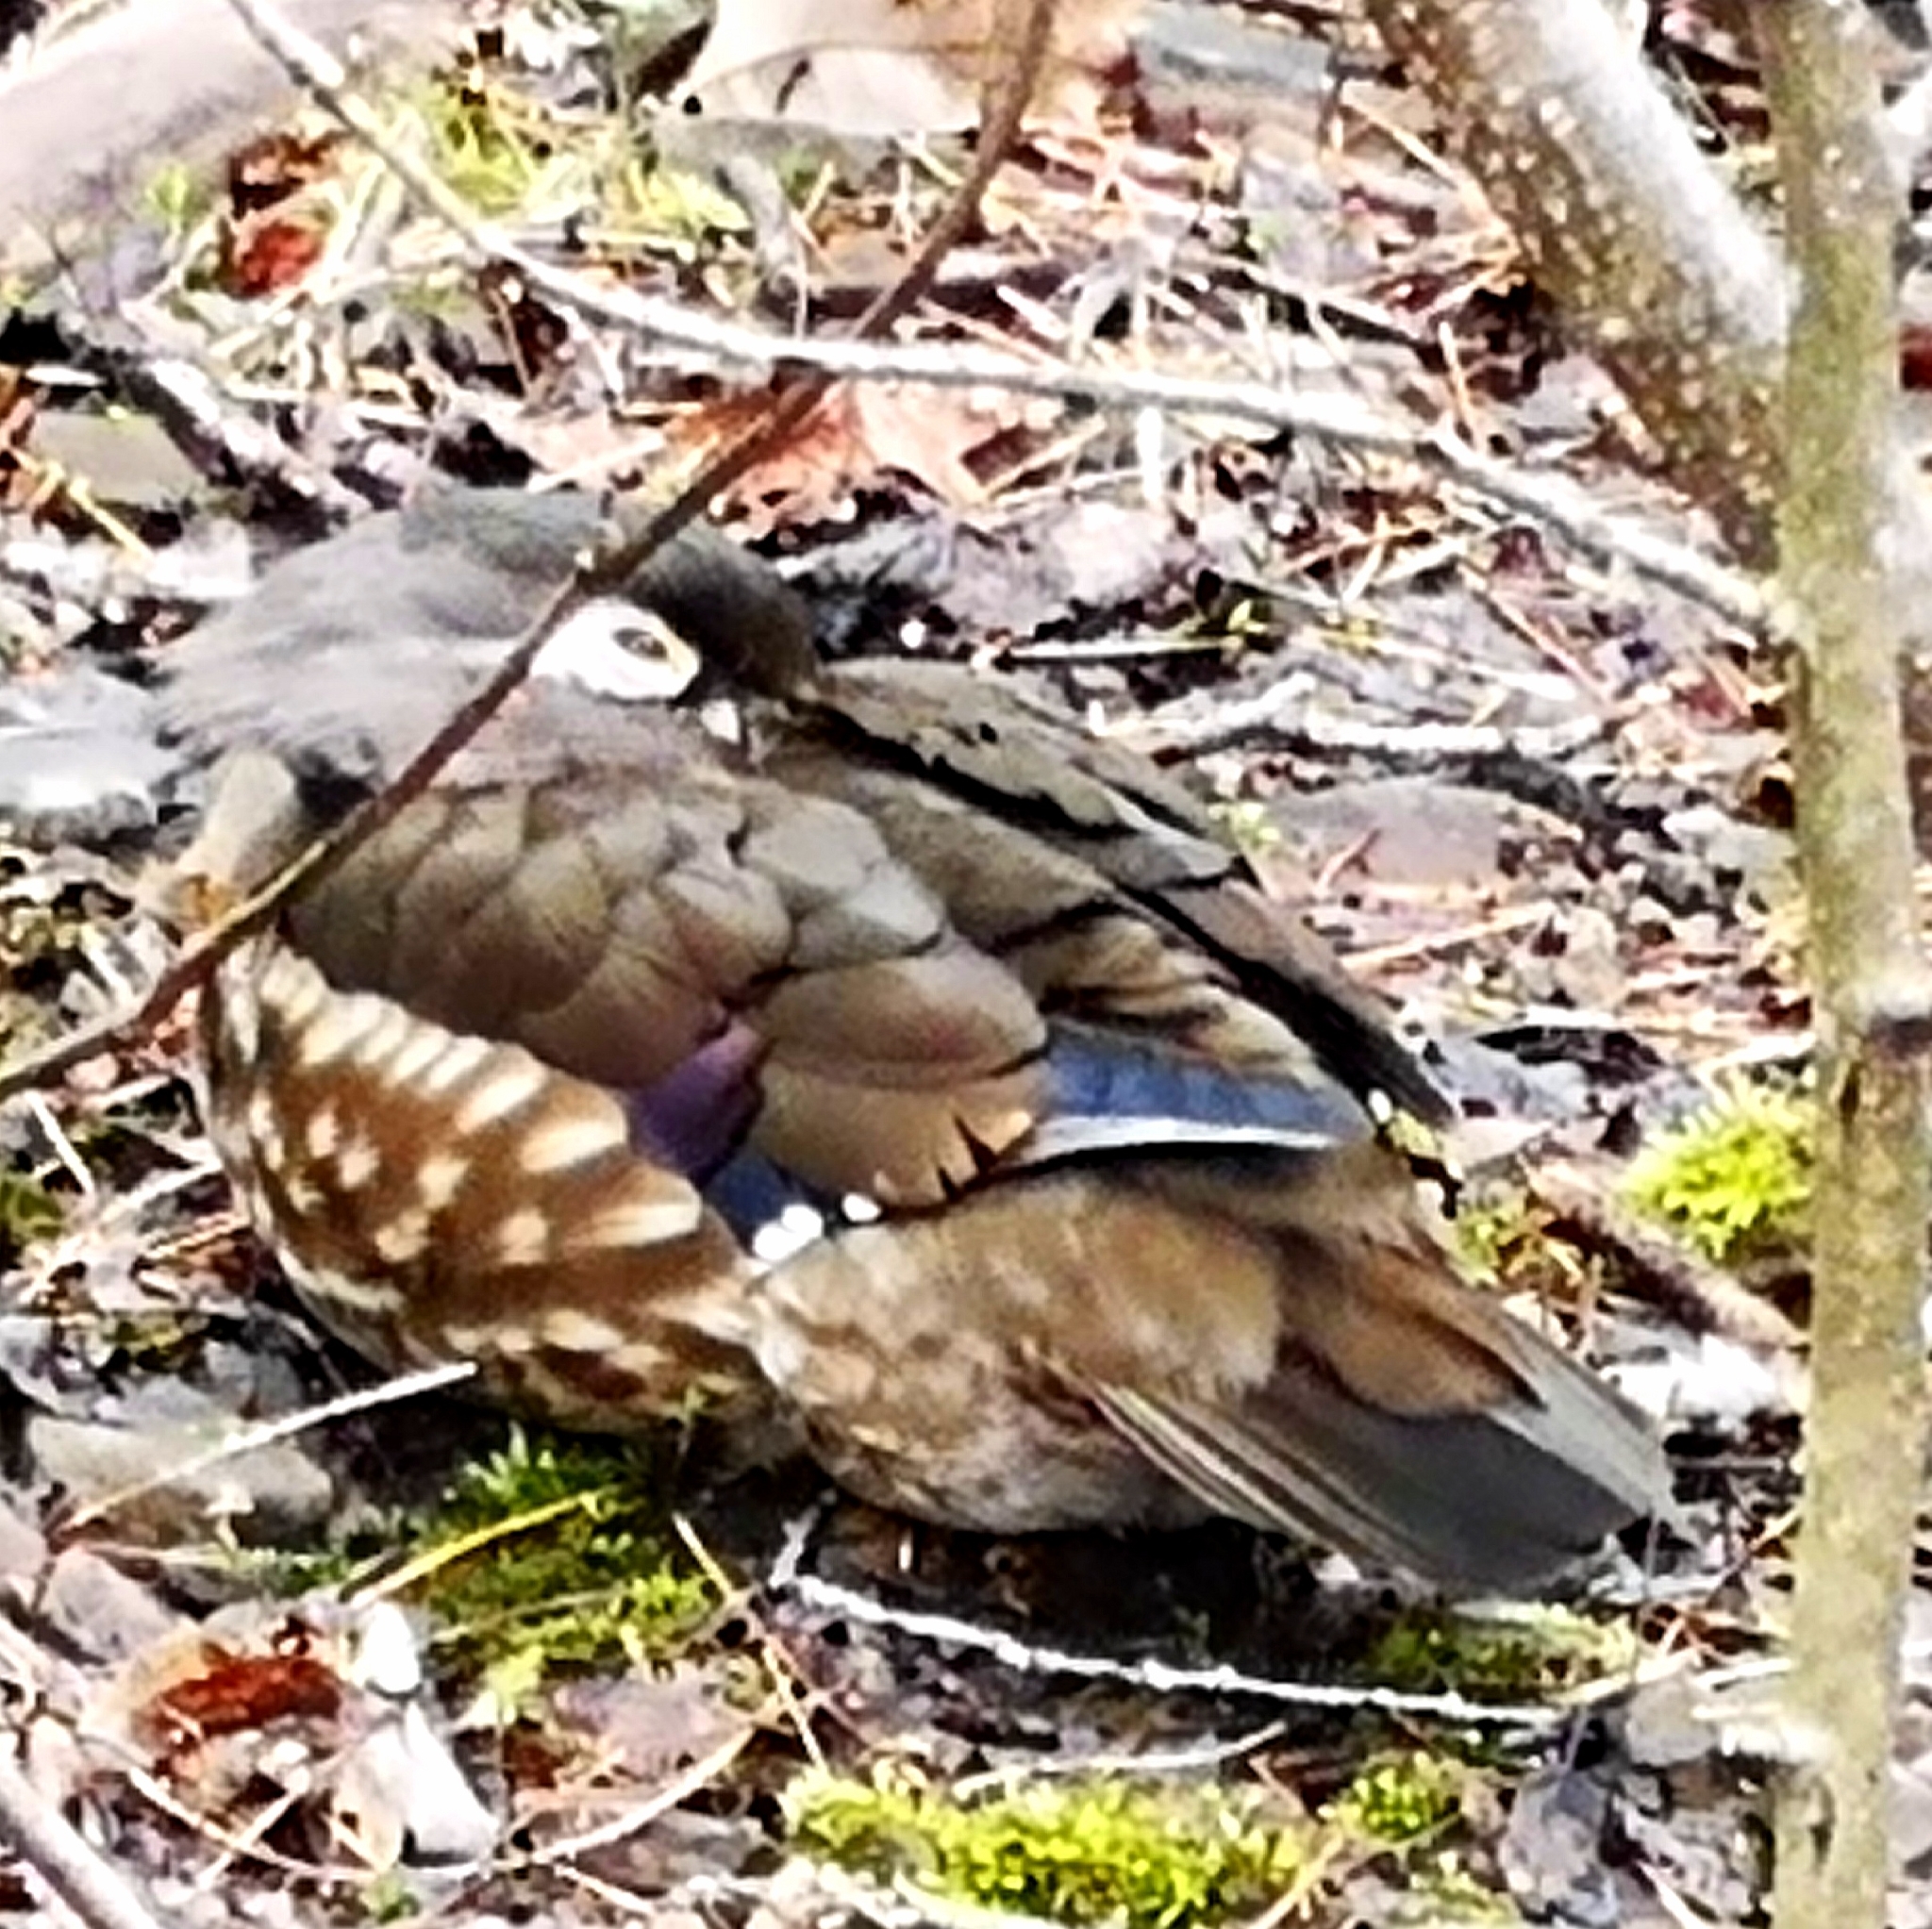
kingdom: Animalia
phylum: Chordata
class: Aves
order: Anseriformes
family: Anatidae
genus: Aix
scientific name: Aix sponsa
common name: Wood duck
